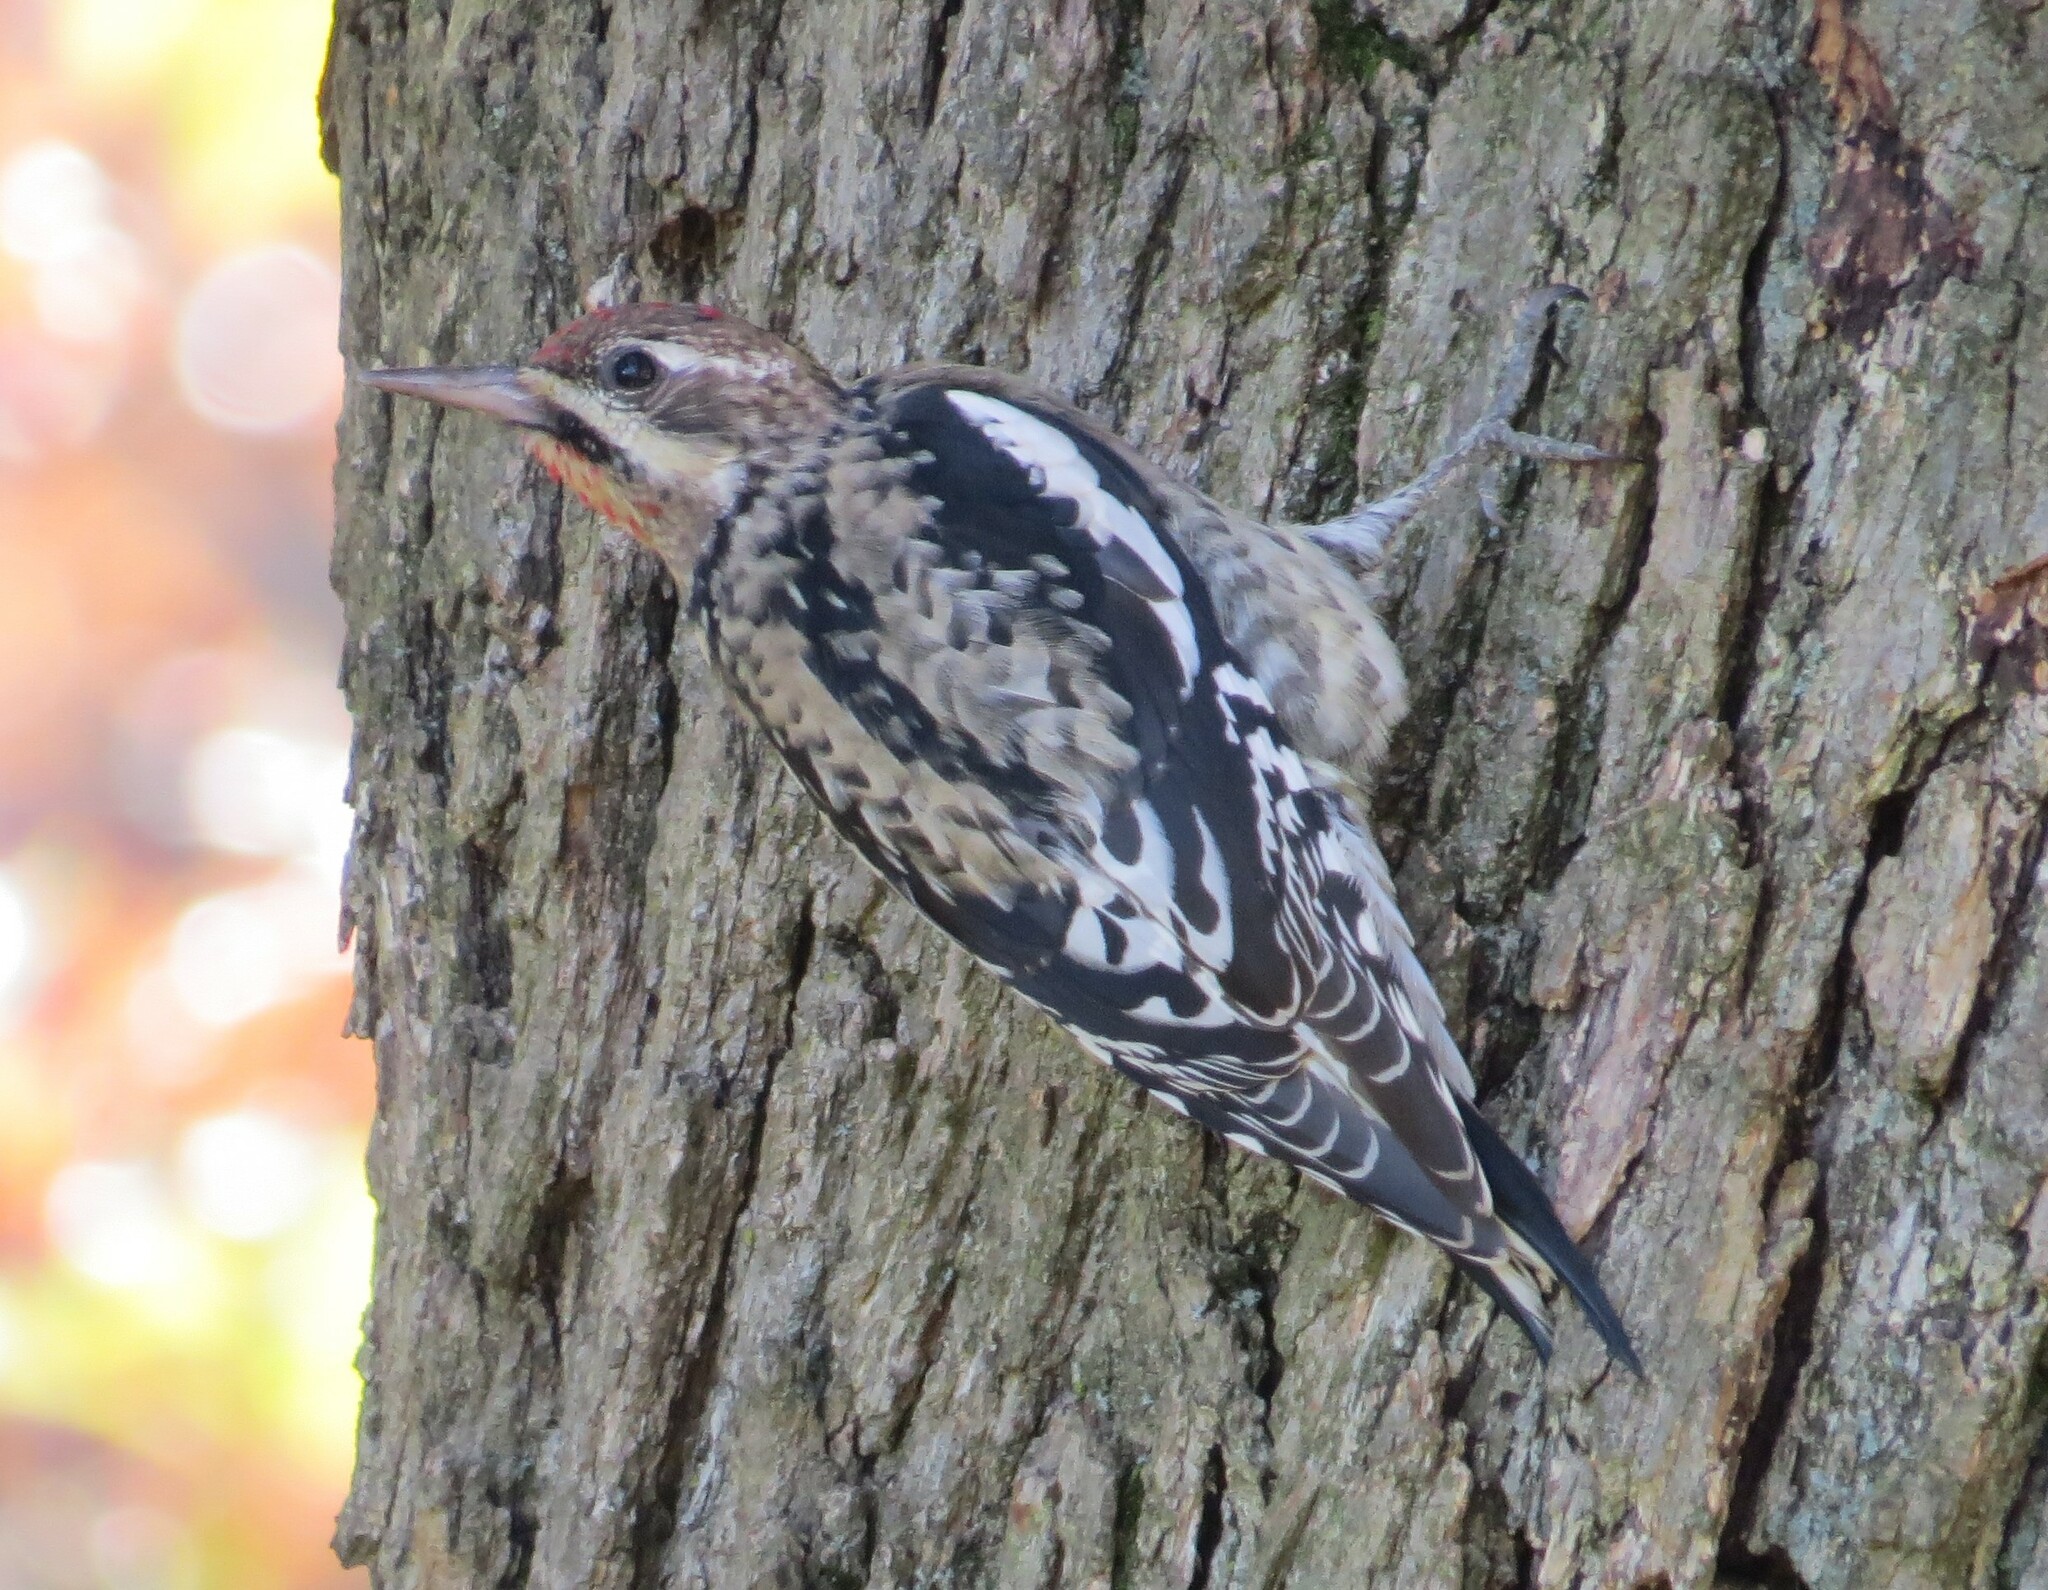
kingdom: Animalia
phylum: Chordata
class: Aves
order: Piciformes
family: Picidae
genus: Sphyrapicus
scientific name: Sphyrapicus varius
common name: Yellow-bellied sapsucker
